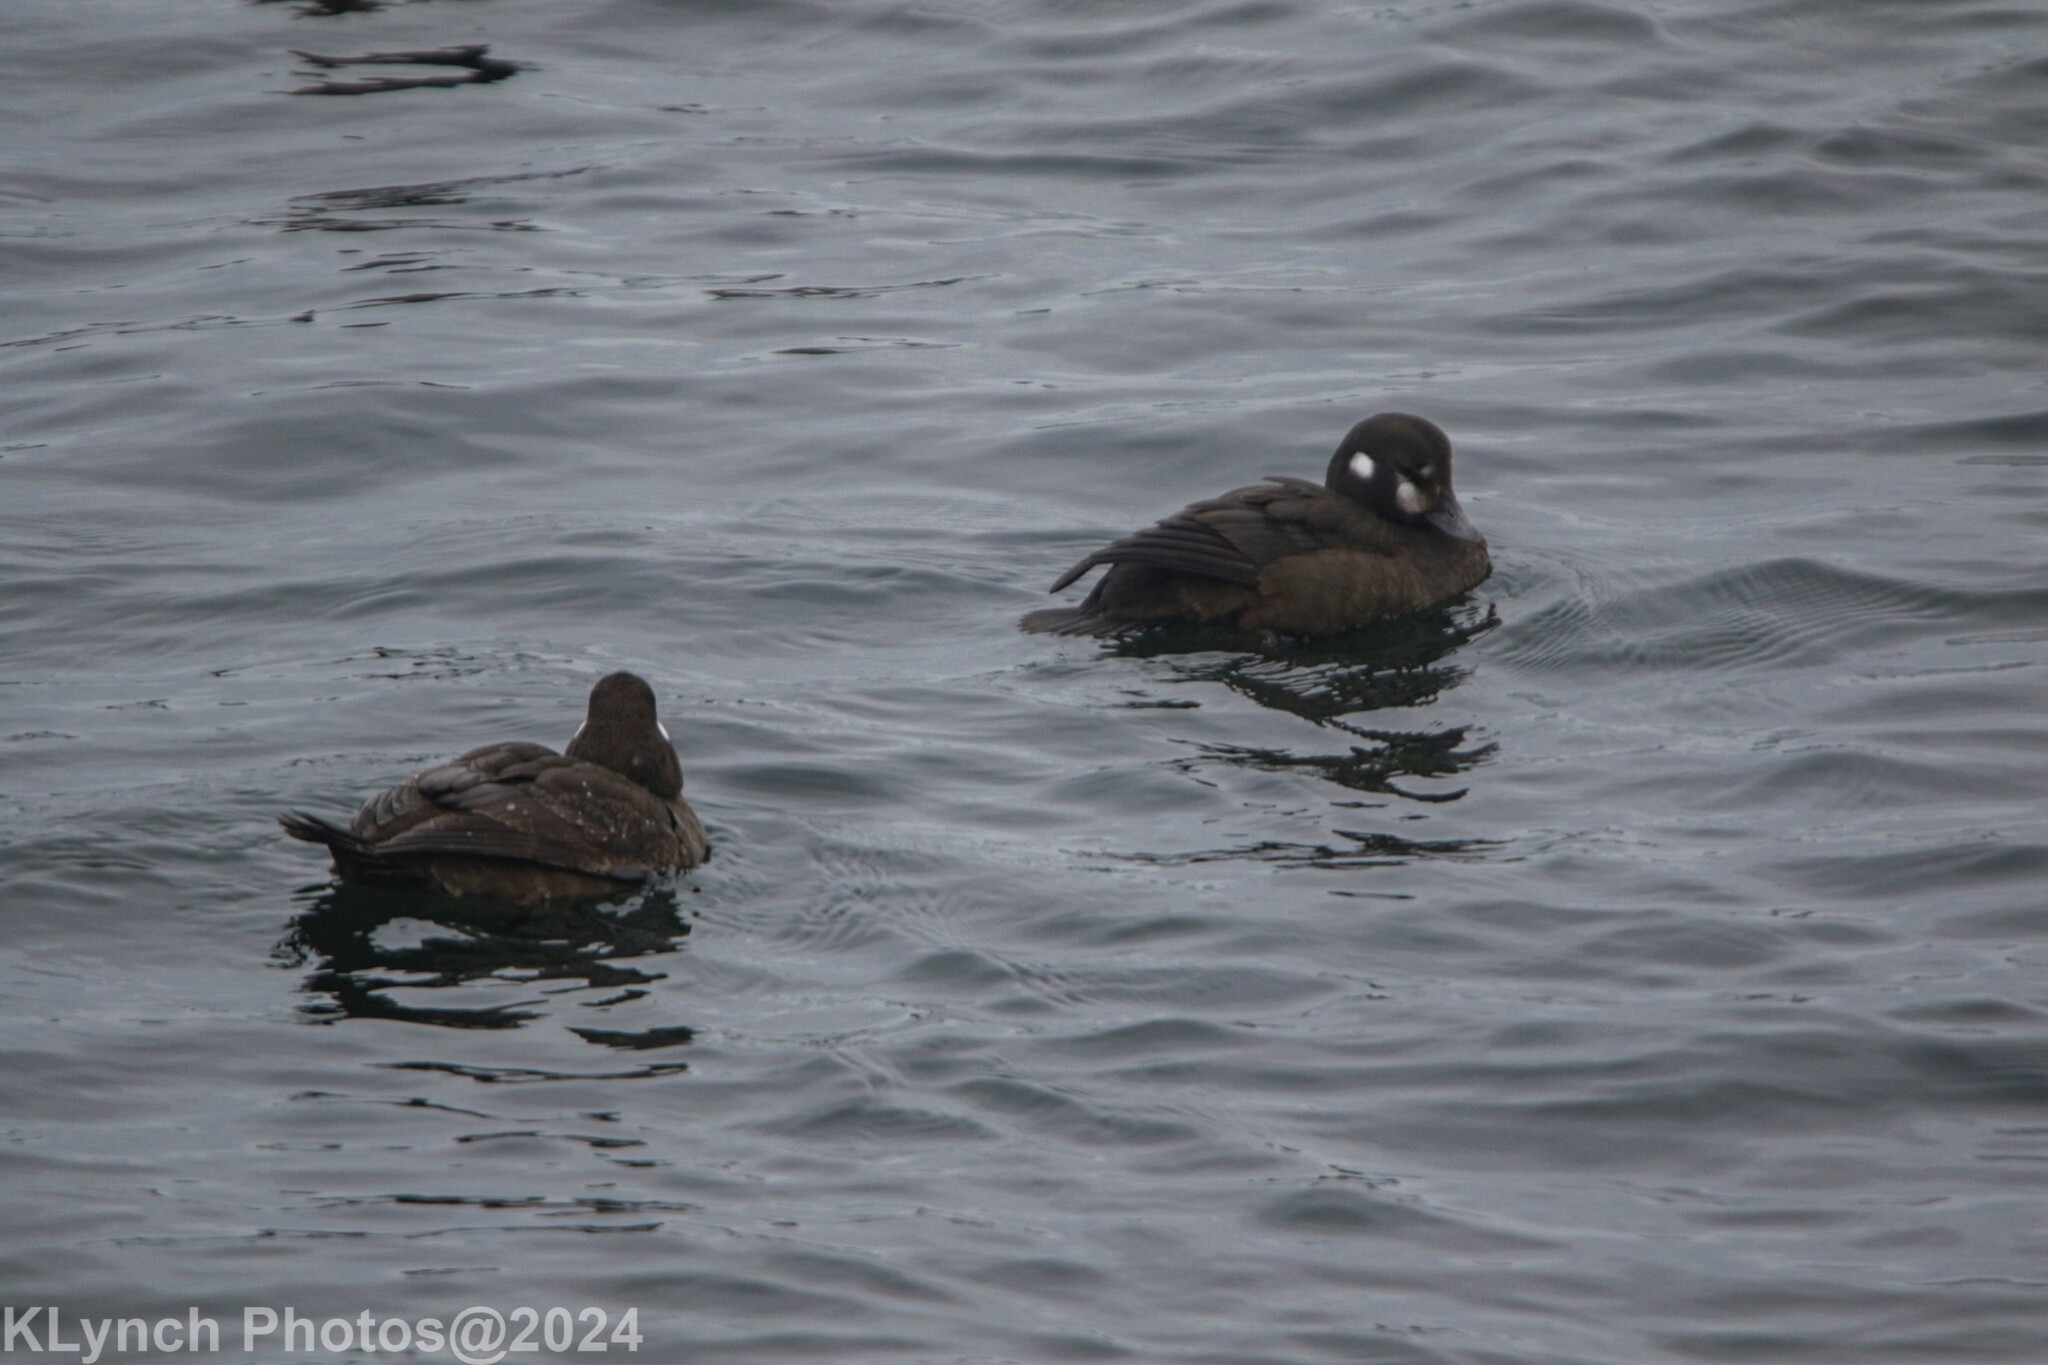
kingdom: Animalia
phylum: Chordata
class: Aves
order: Anseriformes
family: Anatidae
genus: Histrionicus
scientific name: Histrionicus histrionicus
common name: Harlequin duck
